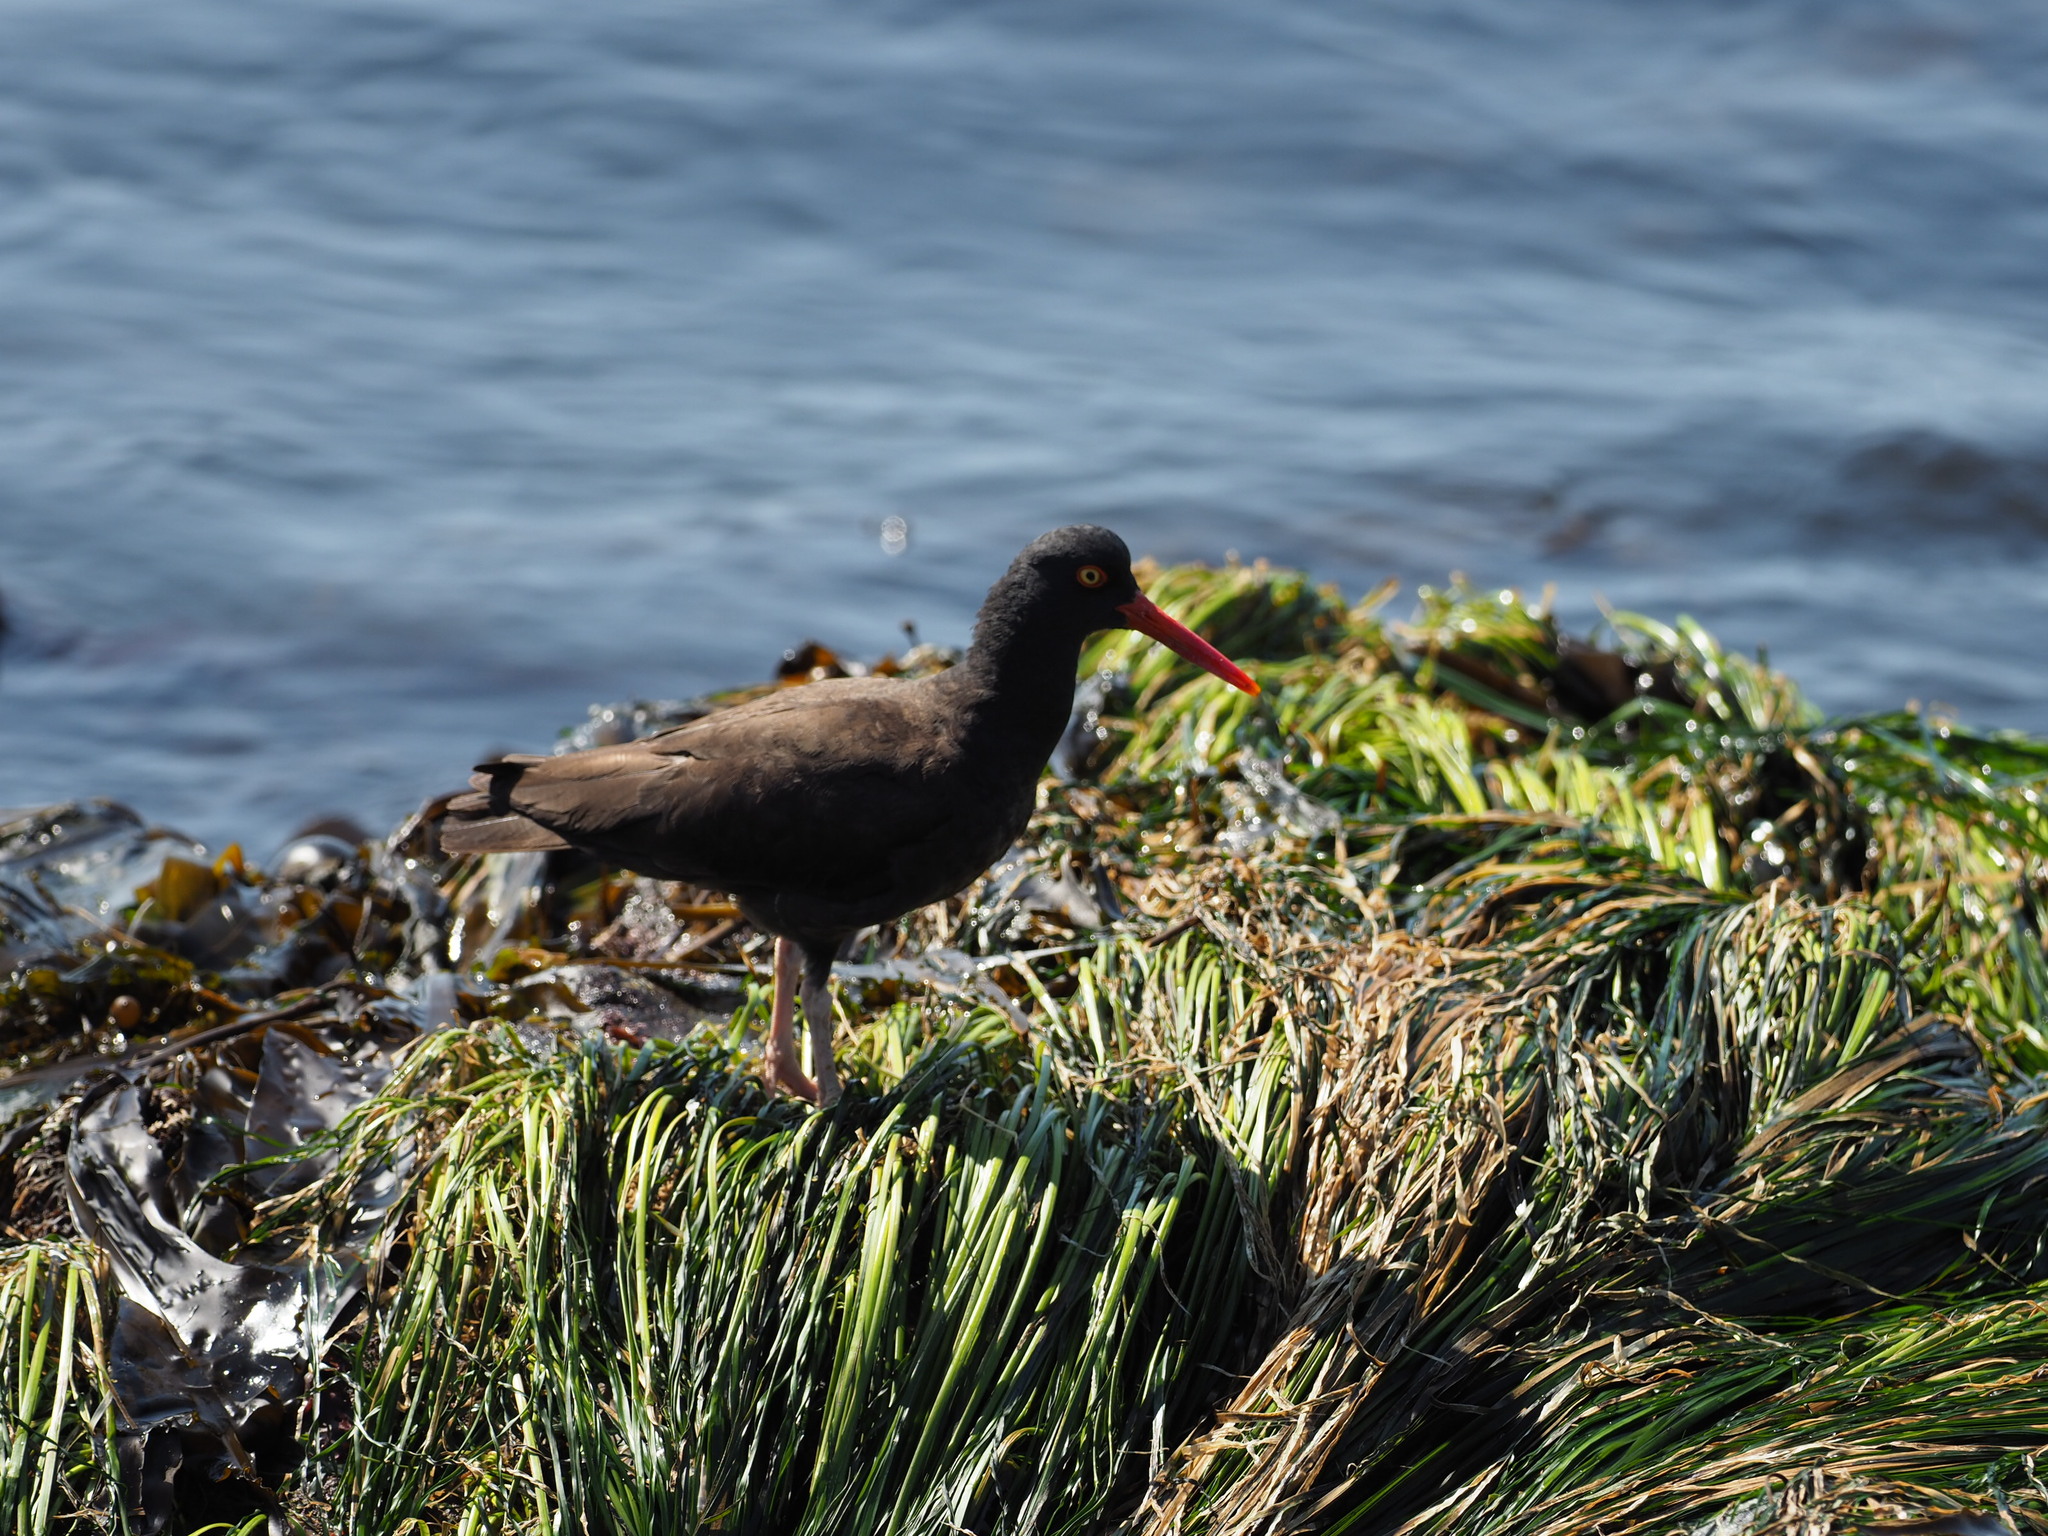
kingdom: Animalia
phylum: Chordata
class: Aves
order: Charadriiformes
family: Haematopodidae
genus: Haematopus
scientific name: Haematopus bachmani
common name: Black oystercatcher
